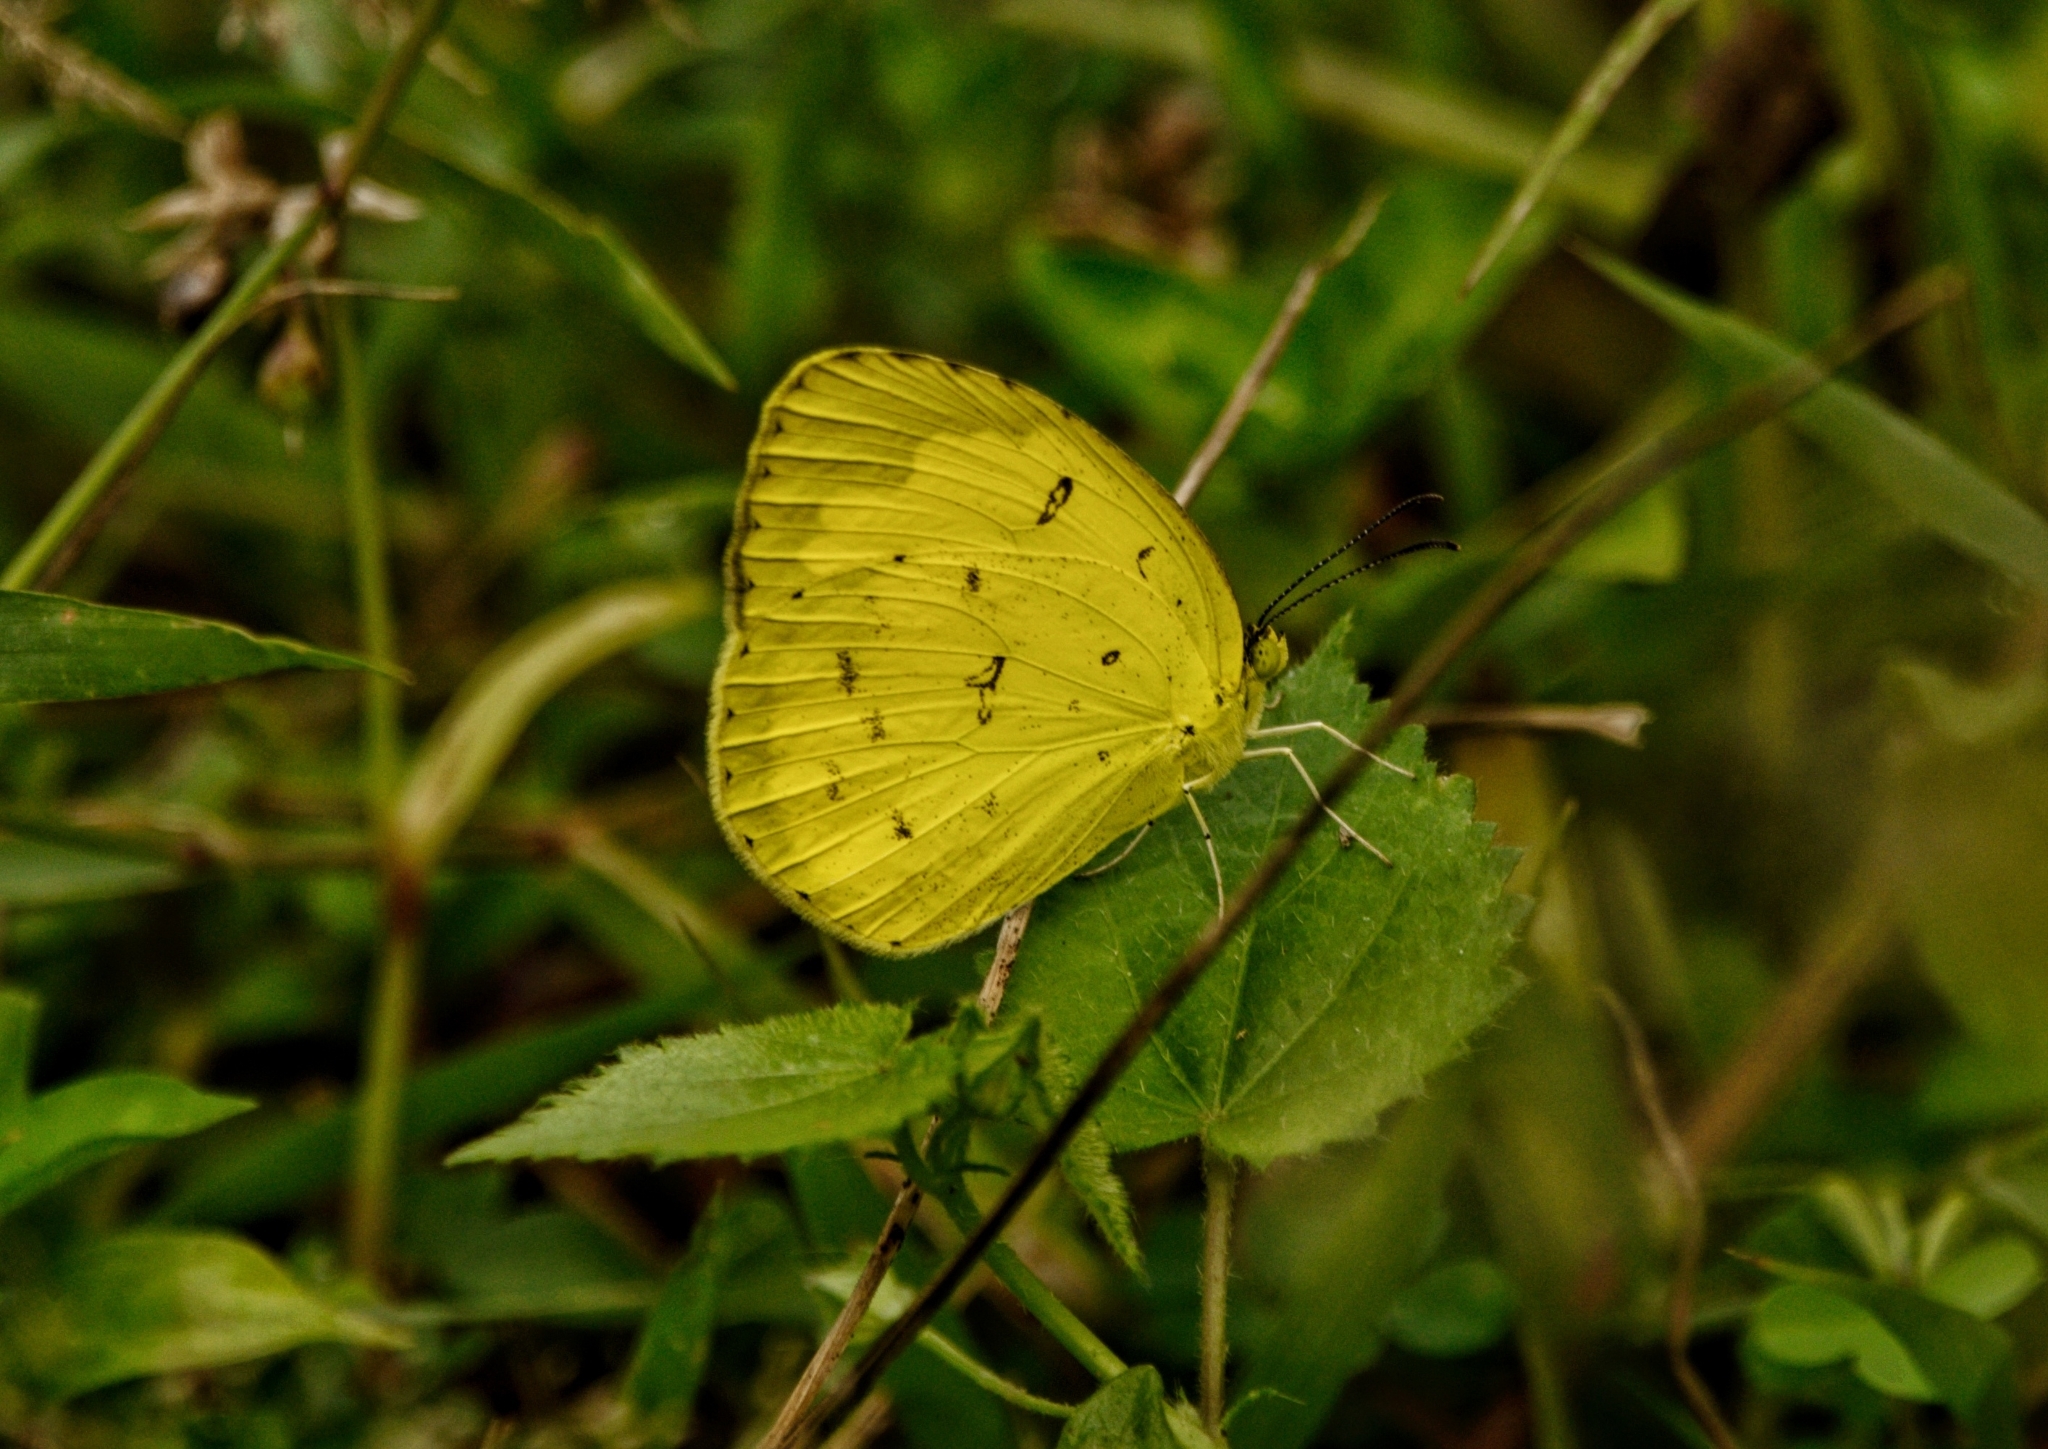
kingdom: Animalia
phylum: Arthropoda
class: Insecta
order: Lepidoptera
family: Pieridae
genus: Eurema
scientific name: Eurema blanda
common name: Three-spot grass yellow
